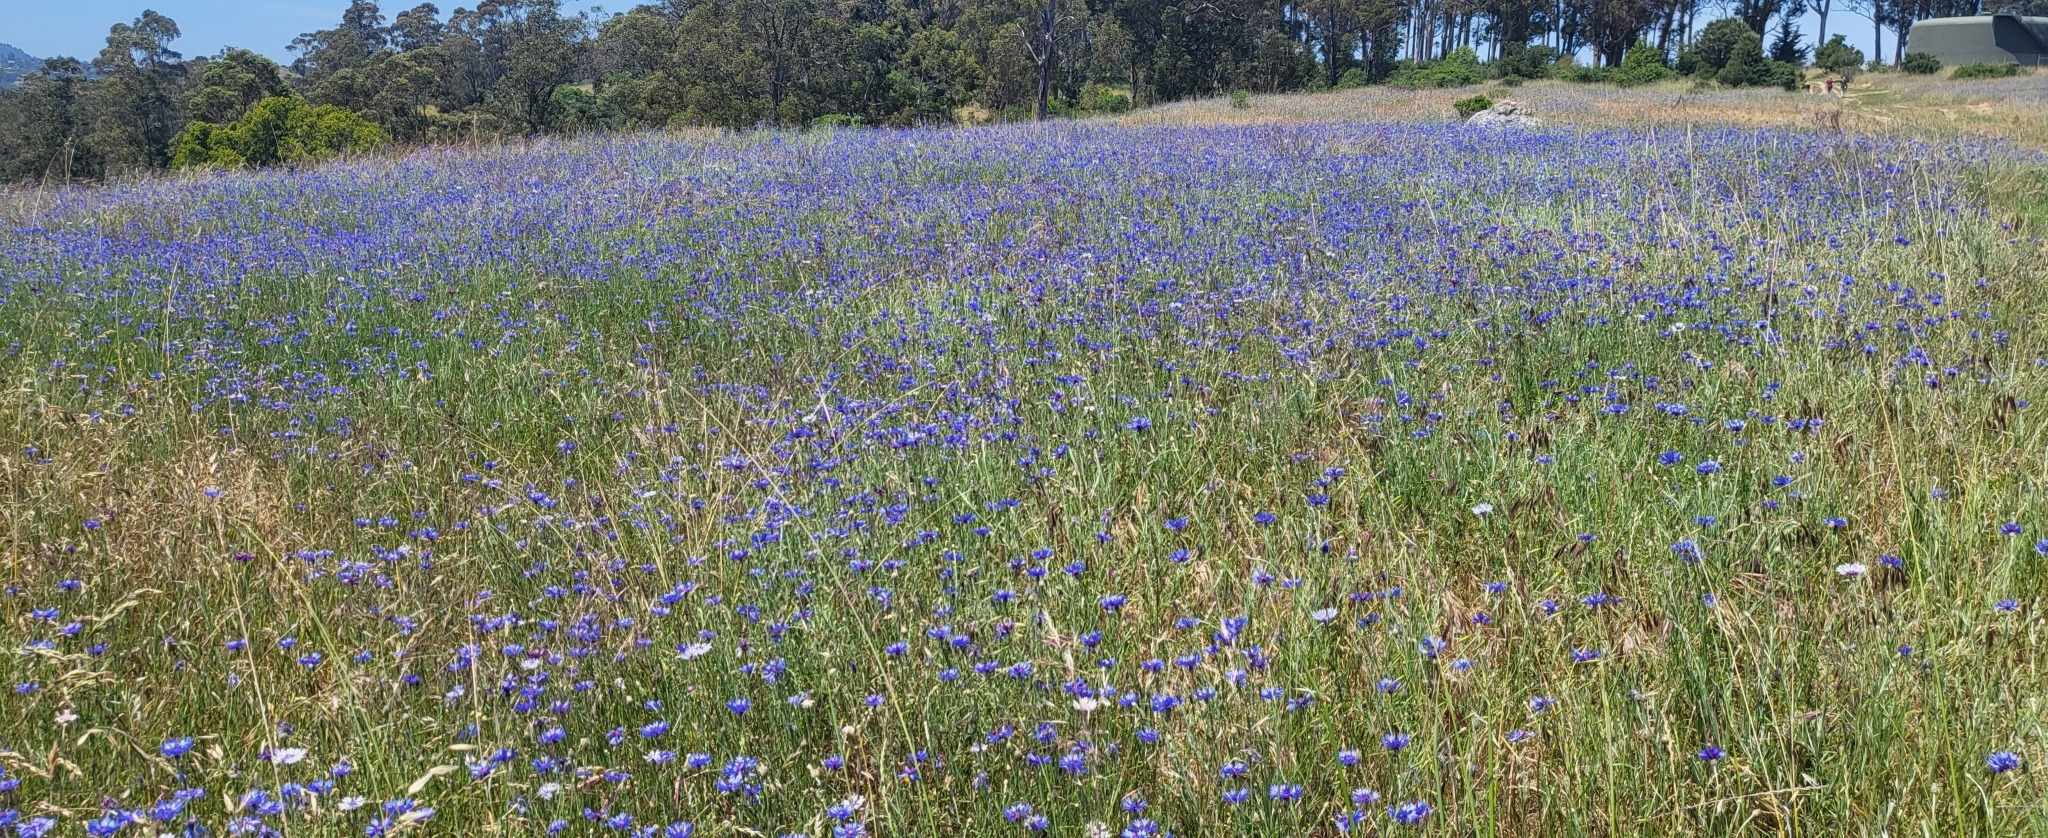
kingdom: Plantae
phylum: Tracheophyta
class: Magnoliopsida
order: Asterales
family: Asteraceae
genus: Centaurea
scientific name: Centaurea cyanus
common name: Cornflower
